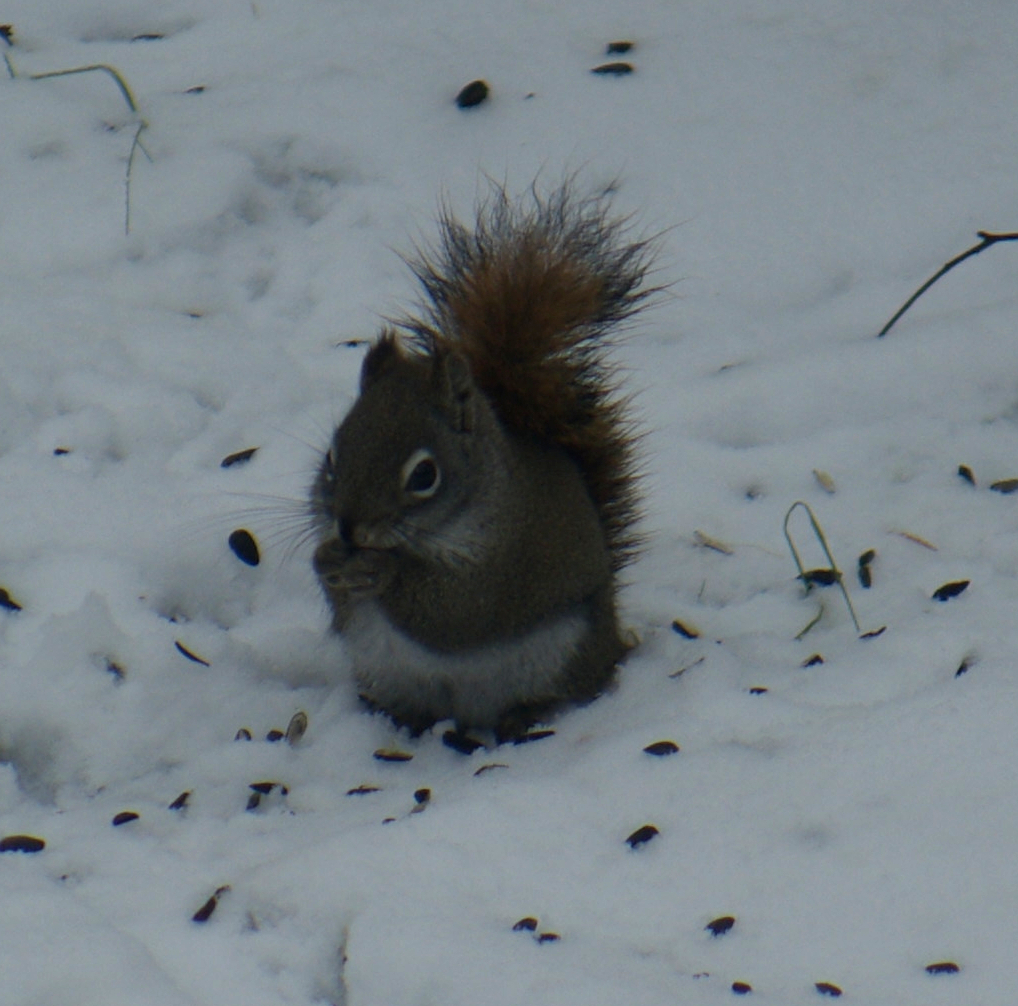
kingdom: Animalia
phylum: Chordata
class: Mammalia
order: Rodentia
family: Sciuridae
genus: Tamiasciurus
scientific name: Tamiasciurus hudsonicus
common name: Red squirrel
